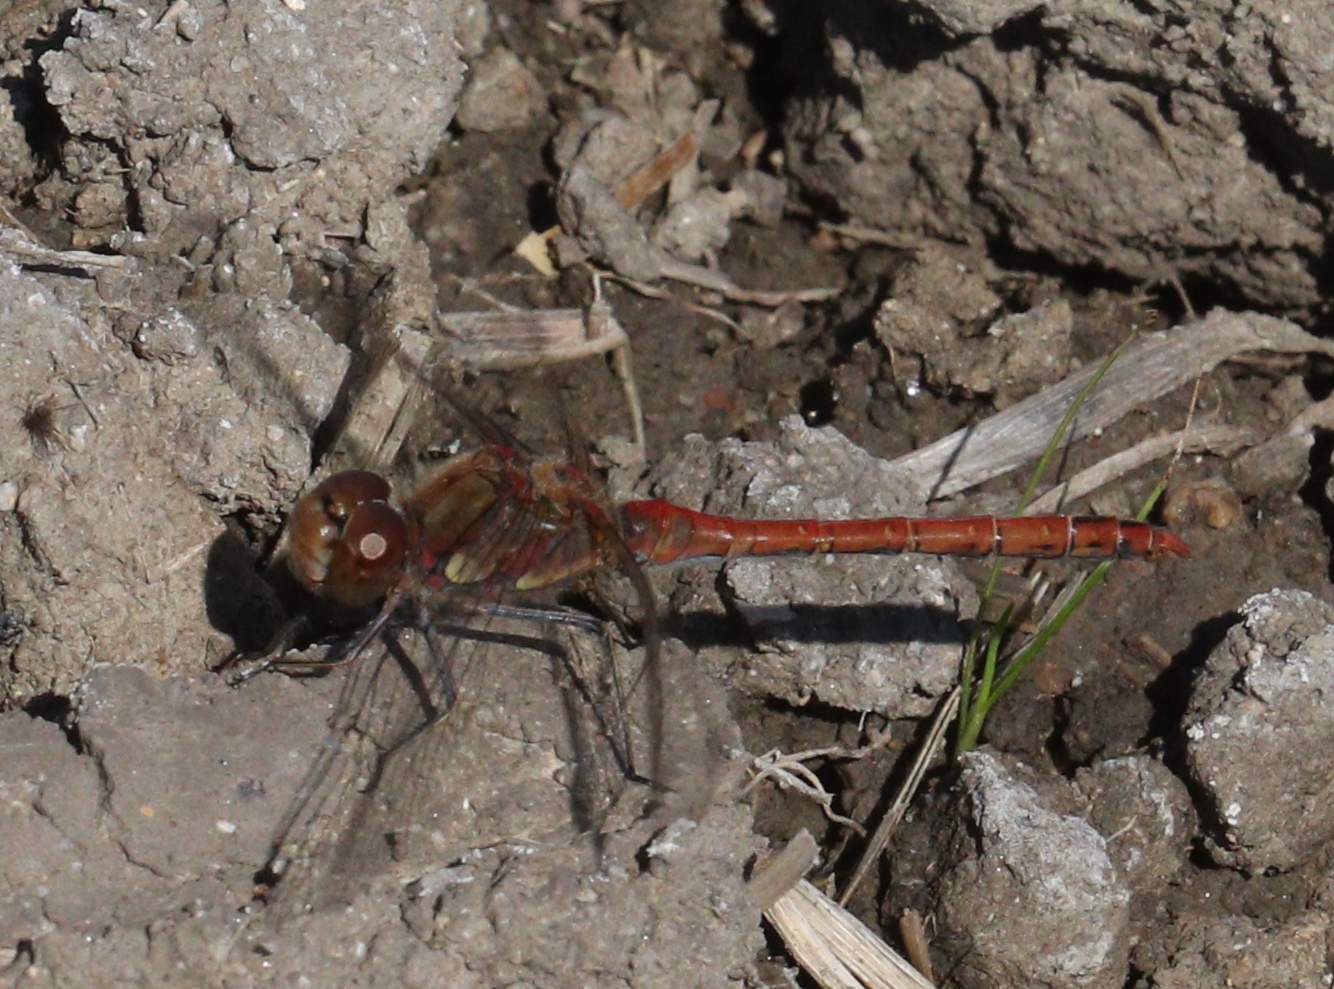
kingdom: Animalia
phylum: Arthropoda
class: Insecta
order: Odonata
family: Libellulidae
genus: Sympetrum
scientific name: Sympetrum striolatum
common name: Common darter
